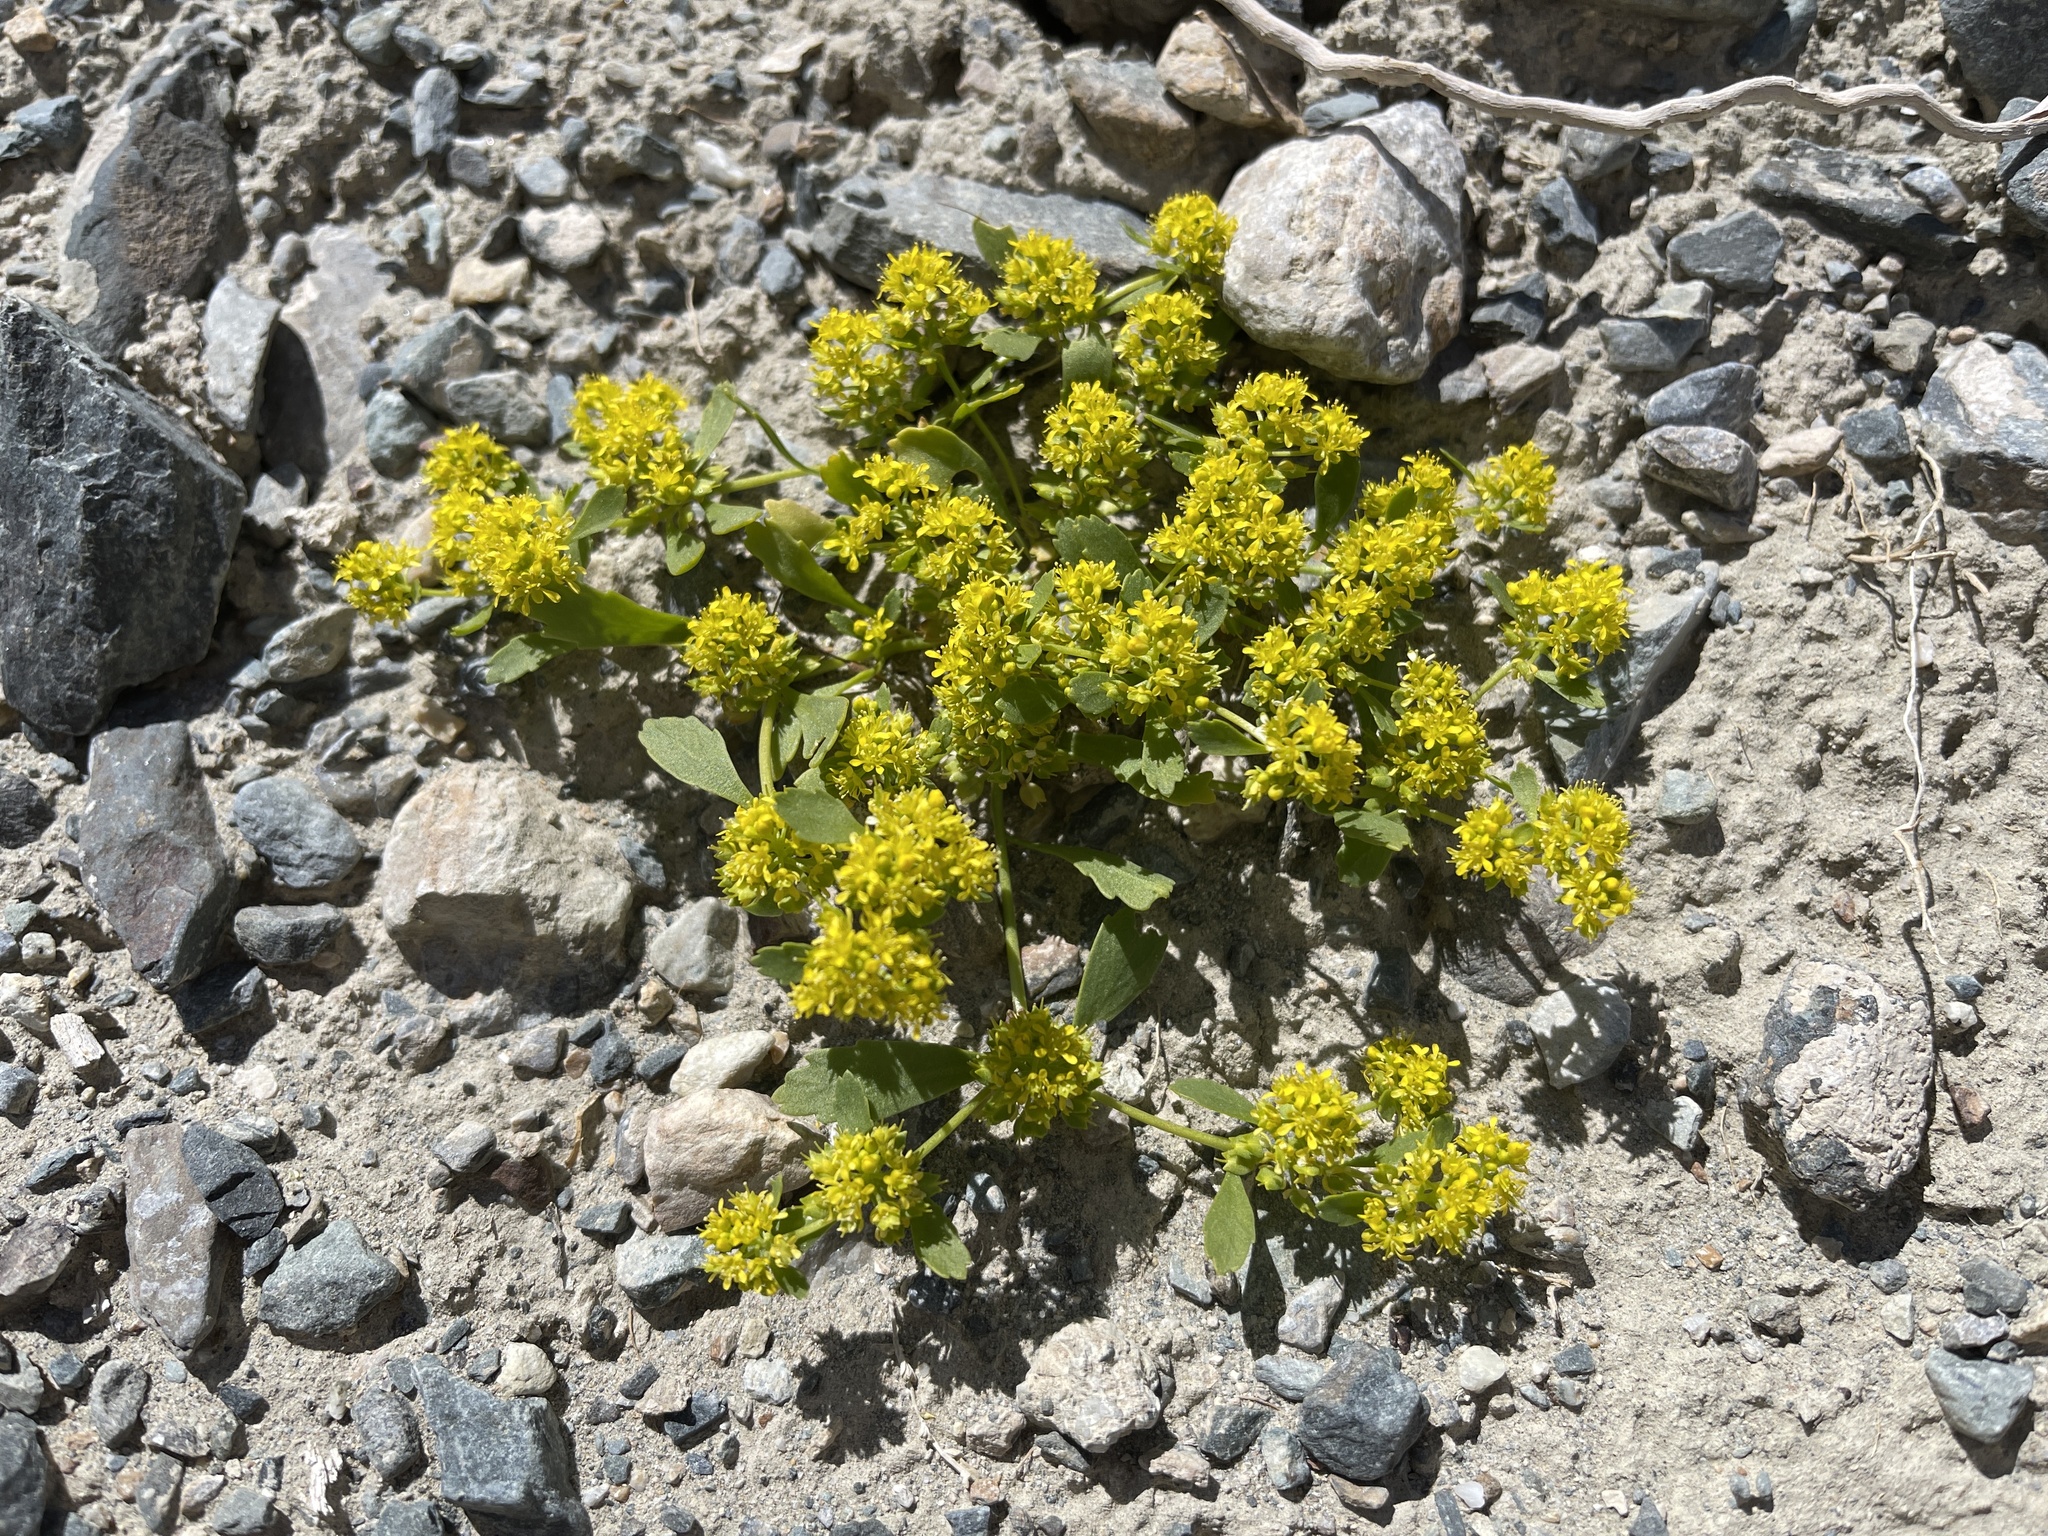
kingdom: Plantae
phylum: Tracheophyta
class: Magnoliopsida
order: Brassicales
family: Brassicaceae
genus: Lepidium
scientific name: Lepidium flavum
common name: Yellow pepperwort
